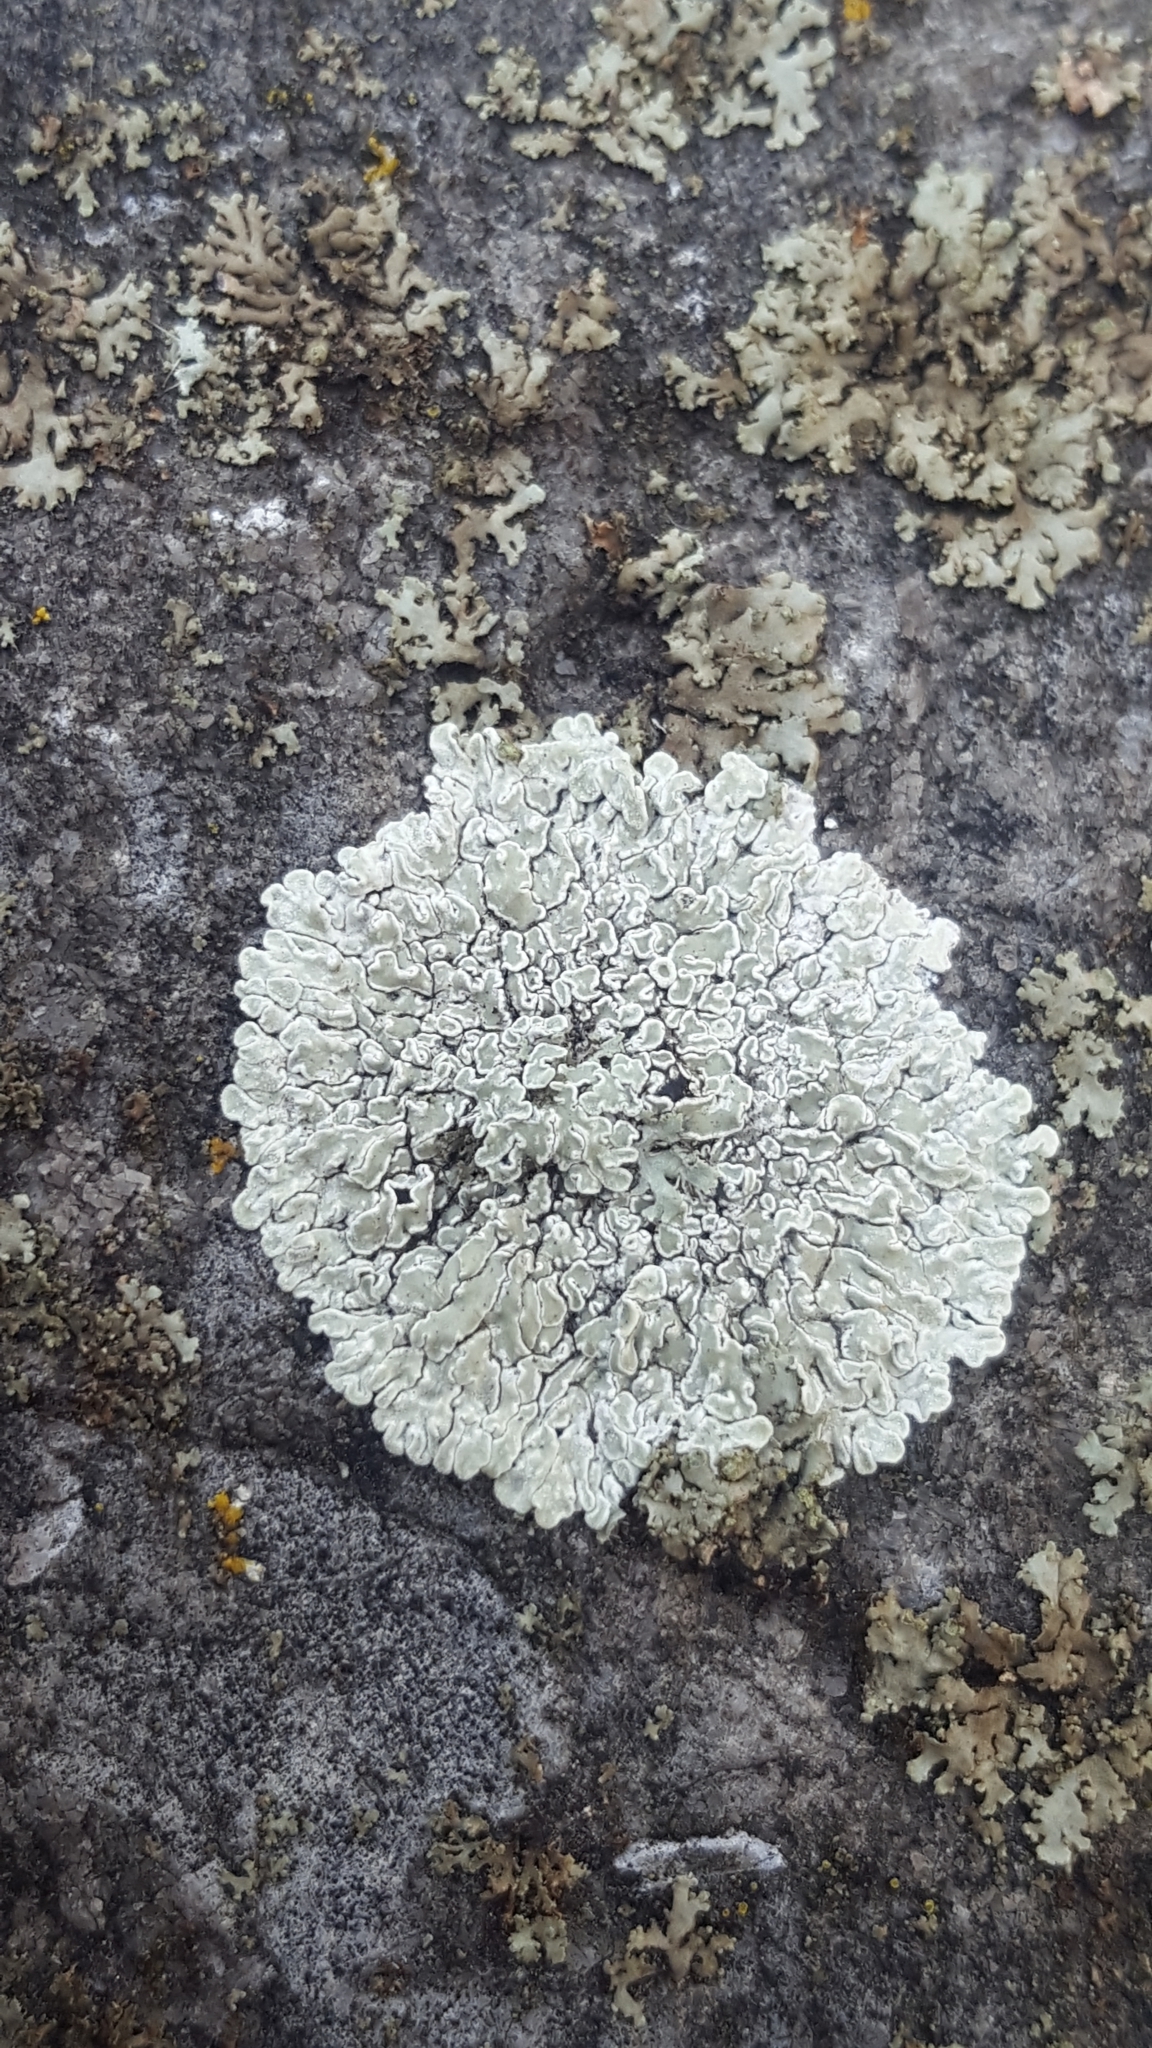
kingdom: Fungi
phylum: Ascomycota
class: Lecanoromycetes
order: Lecanorales
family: Lecanoraceae
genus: Protoparmeliopsis
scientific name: Protoparmeliopsis muralis
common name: Stonewall rim lichen
